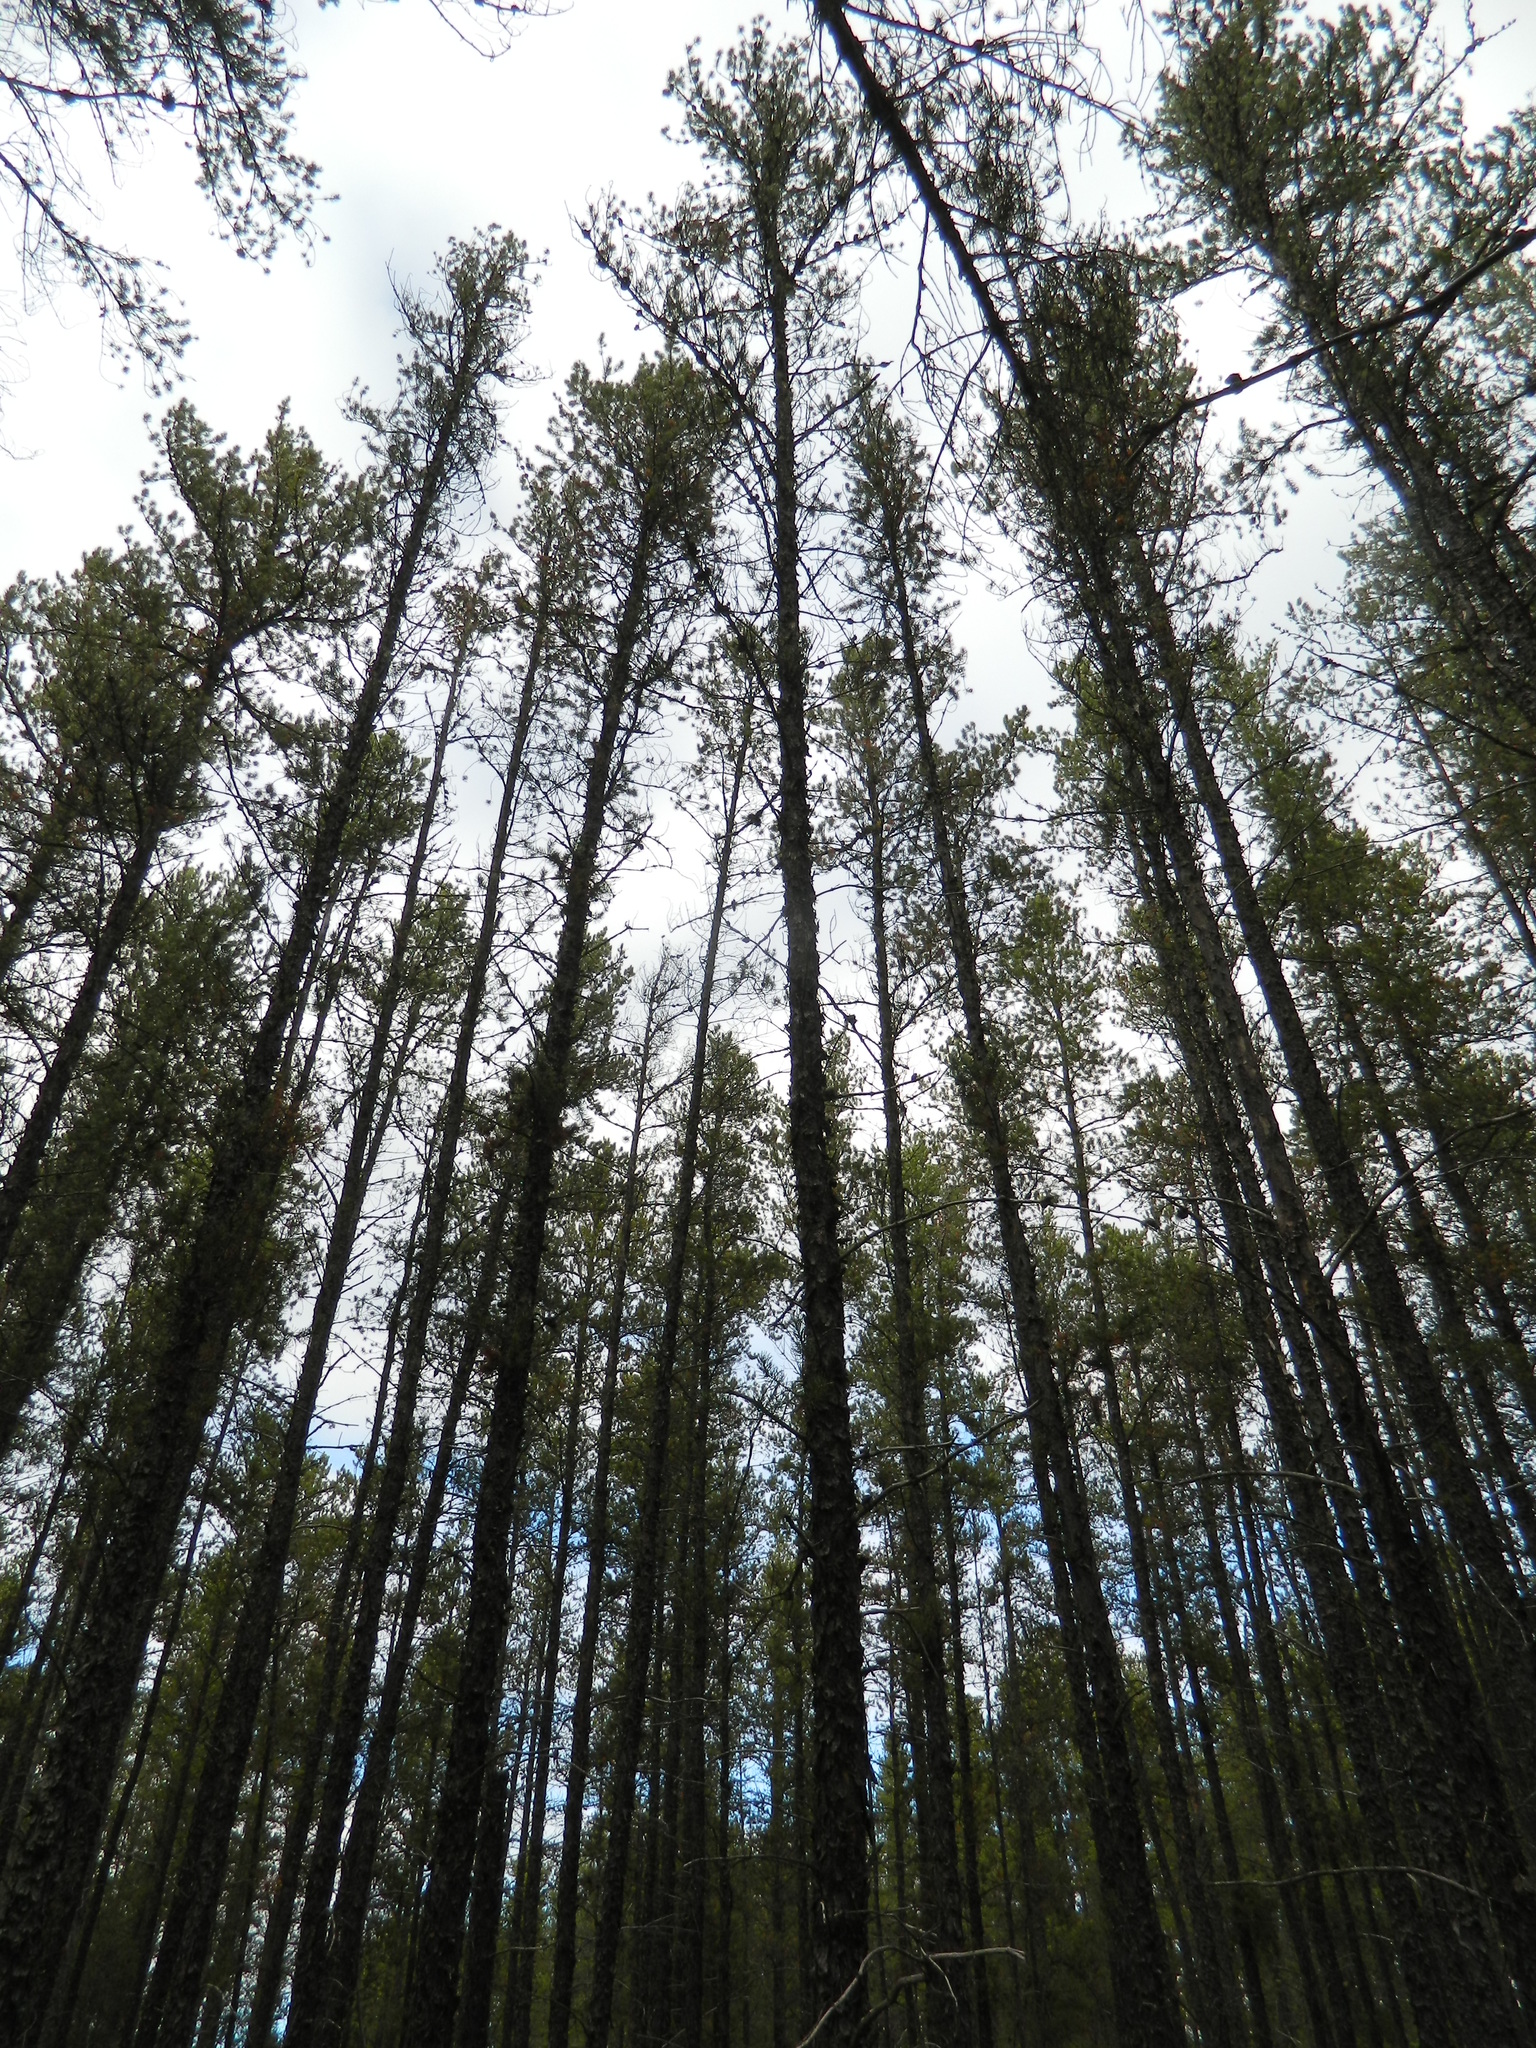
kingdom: Plantae
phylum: Tracheophyta
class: Pinopsida
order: Pinales
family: Pinaceae
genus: Pinus
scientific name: Pinus banksiana
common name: Jack pine
